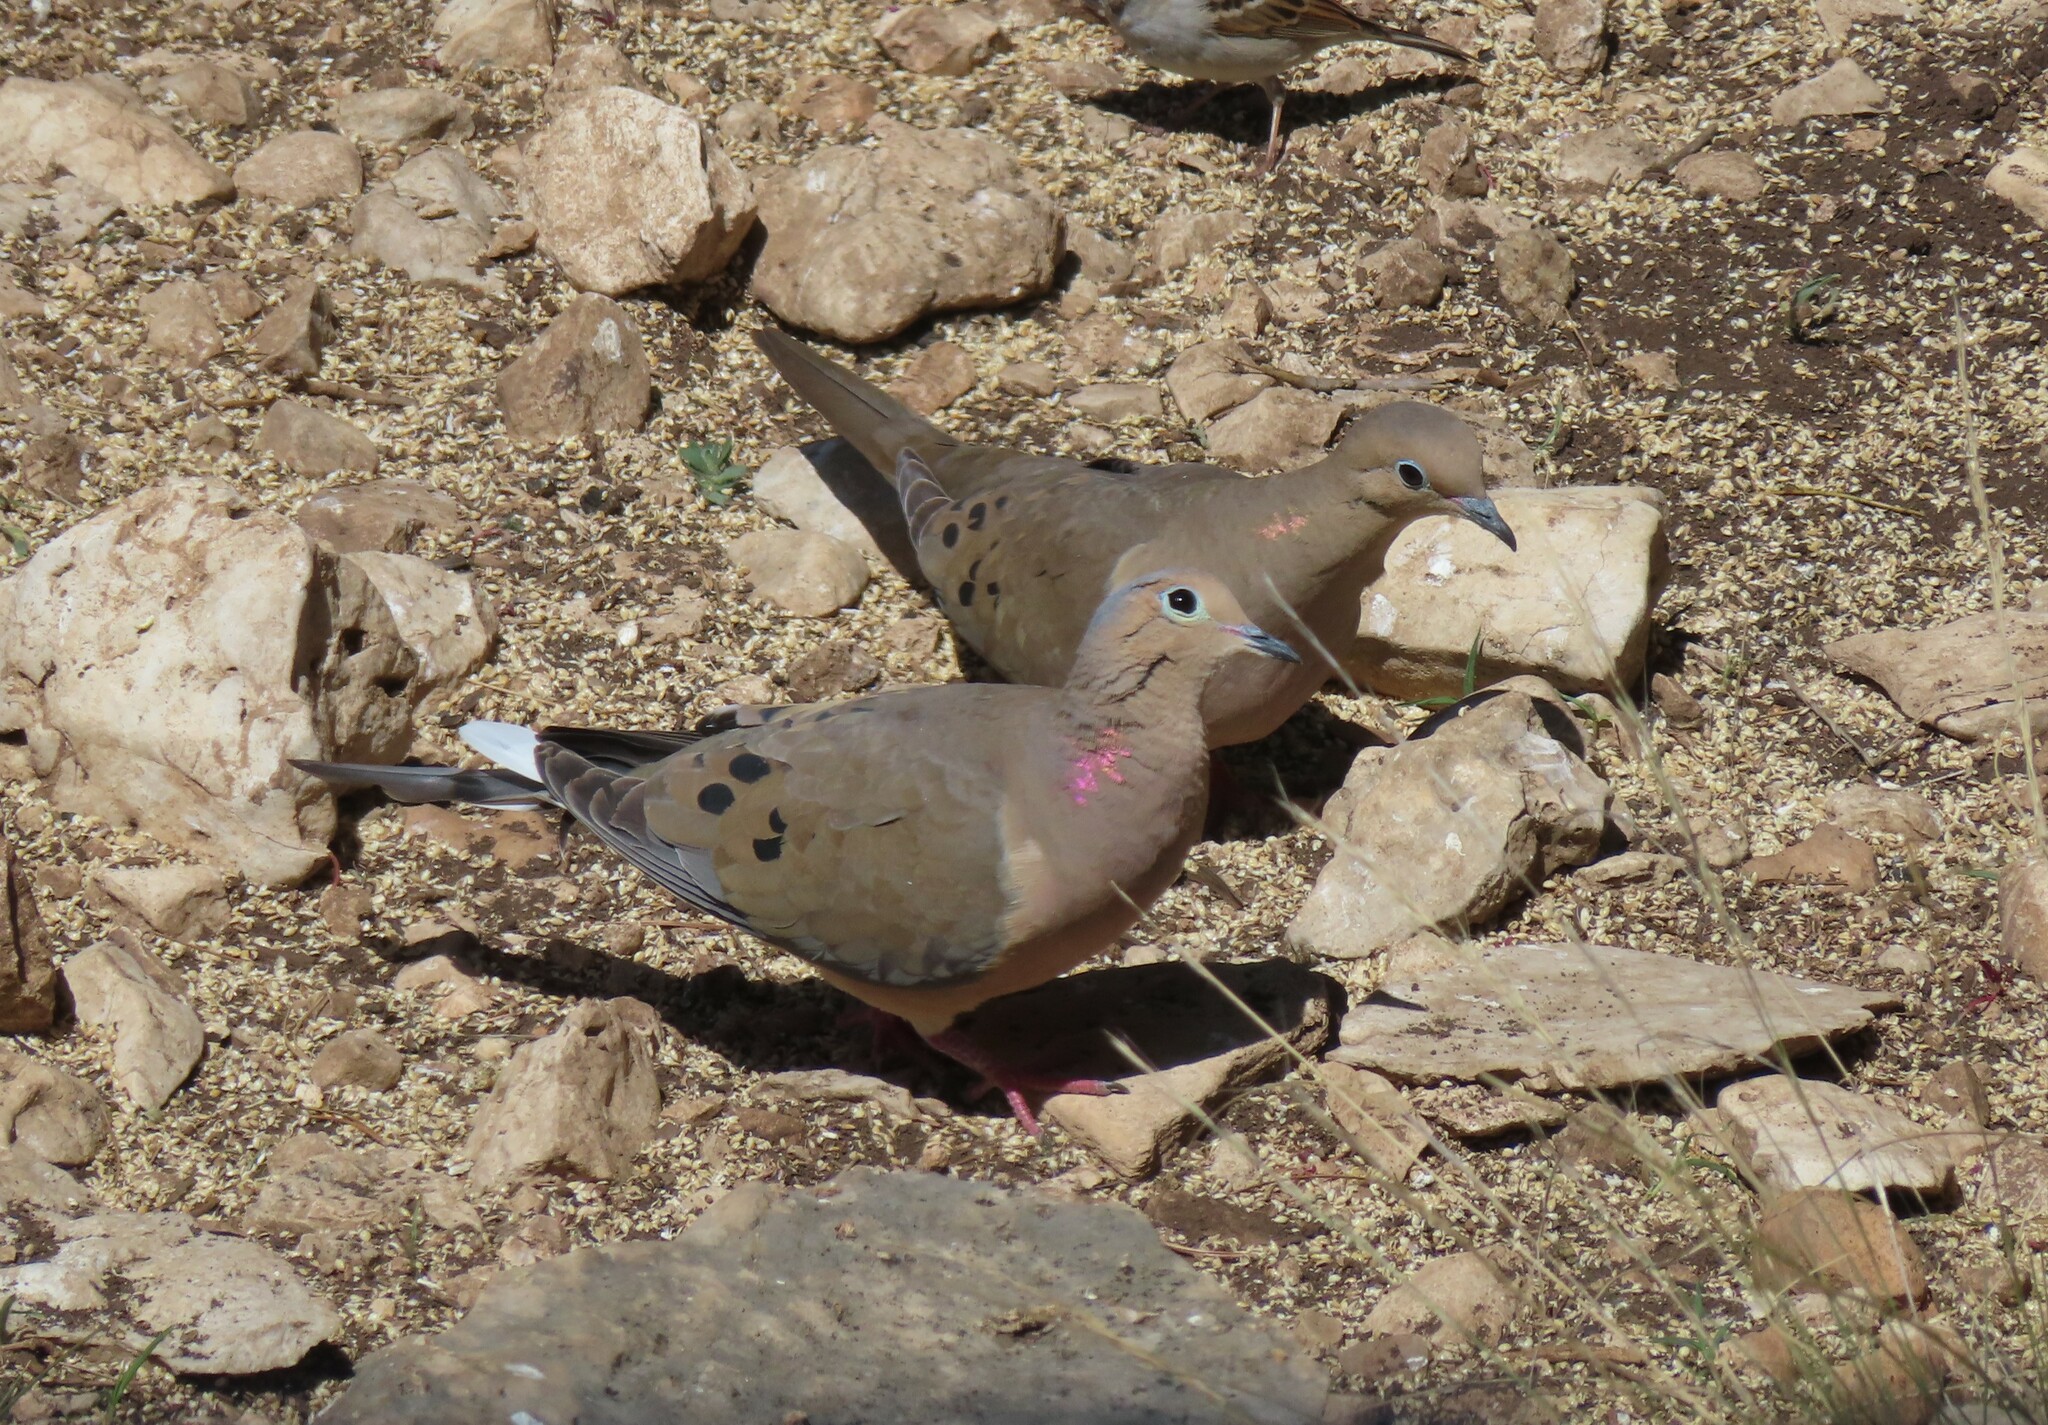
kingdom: Animalia
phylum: Chordata
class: Aves
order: Columbiformes
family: Columbidae
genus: Zenaida
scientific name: Zenaida macroura
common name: Mourning dove
